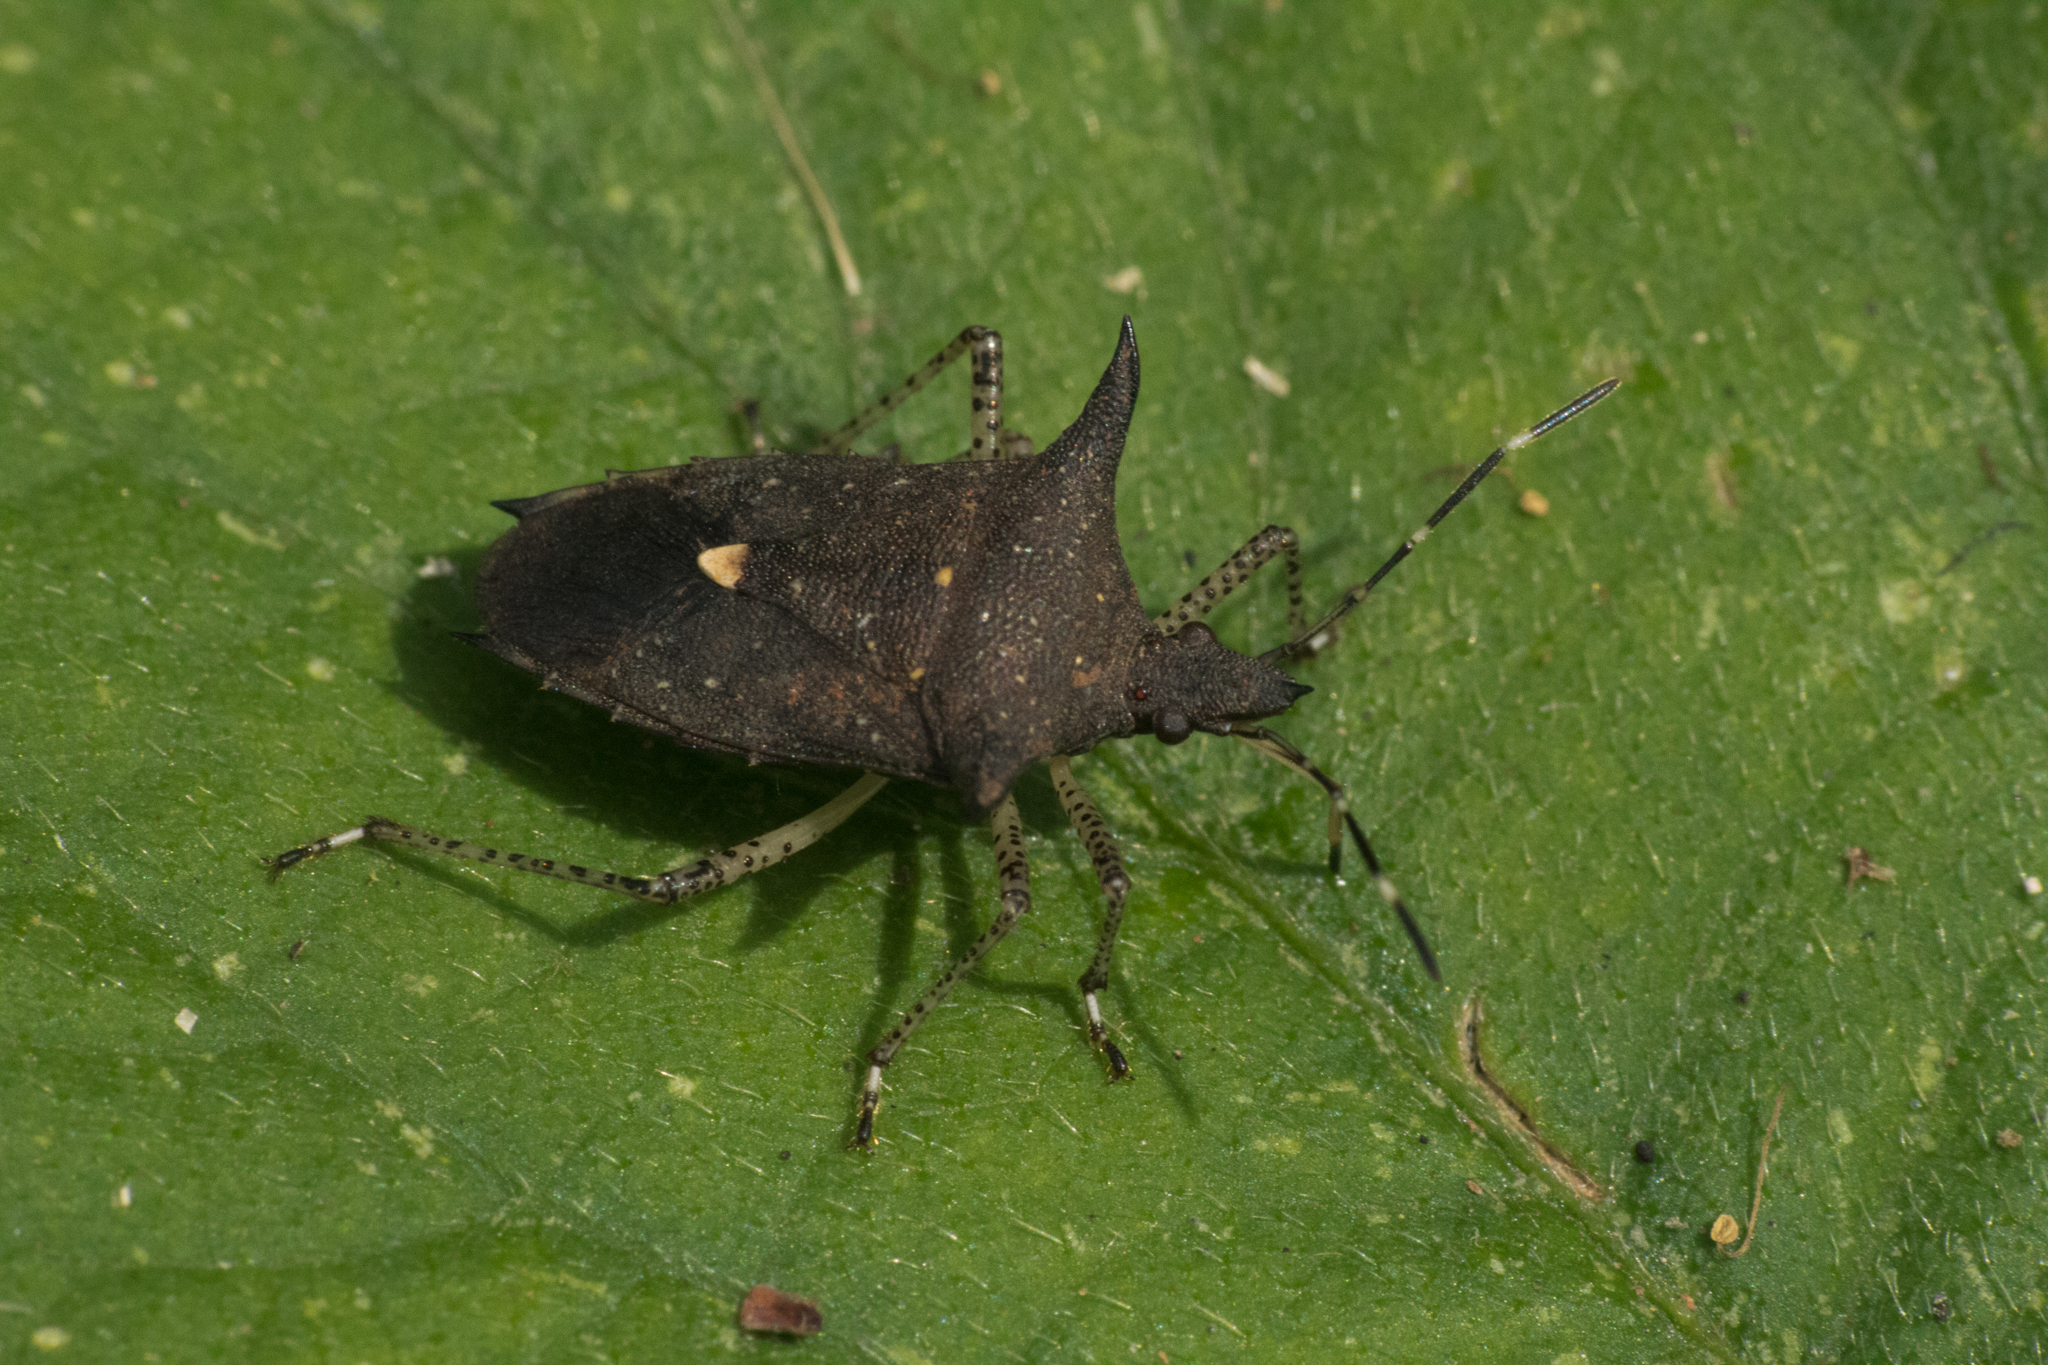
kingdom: Animalia
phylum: Arthropoda
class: Insecta
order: Hemiptera
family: Pentatomidae
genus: Proxys
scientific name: Proxys albopunctulatus
